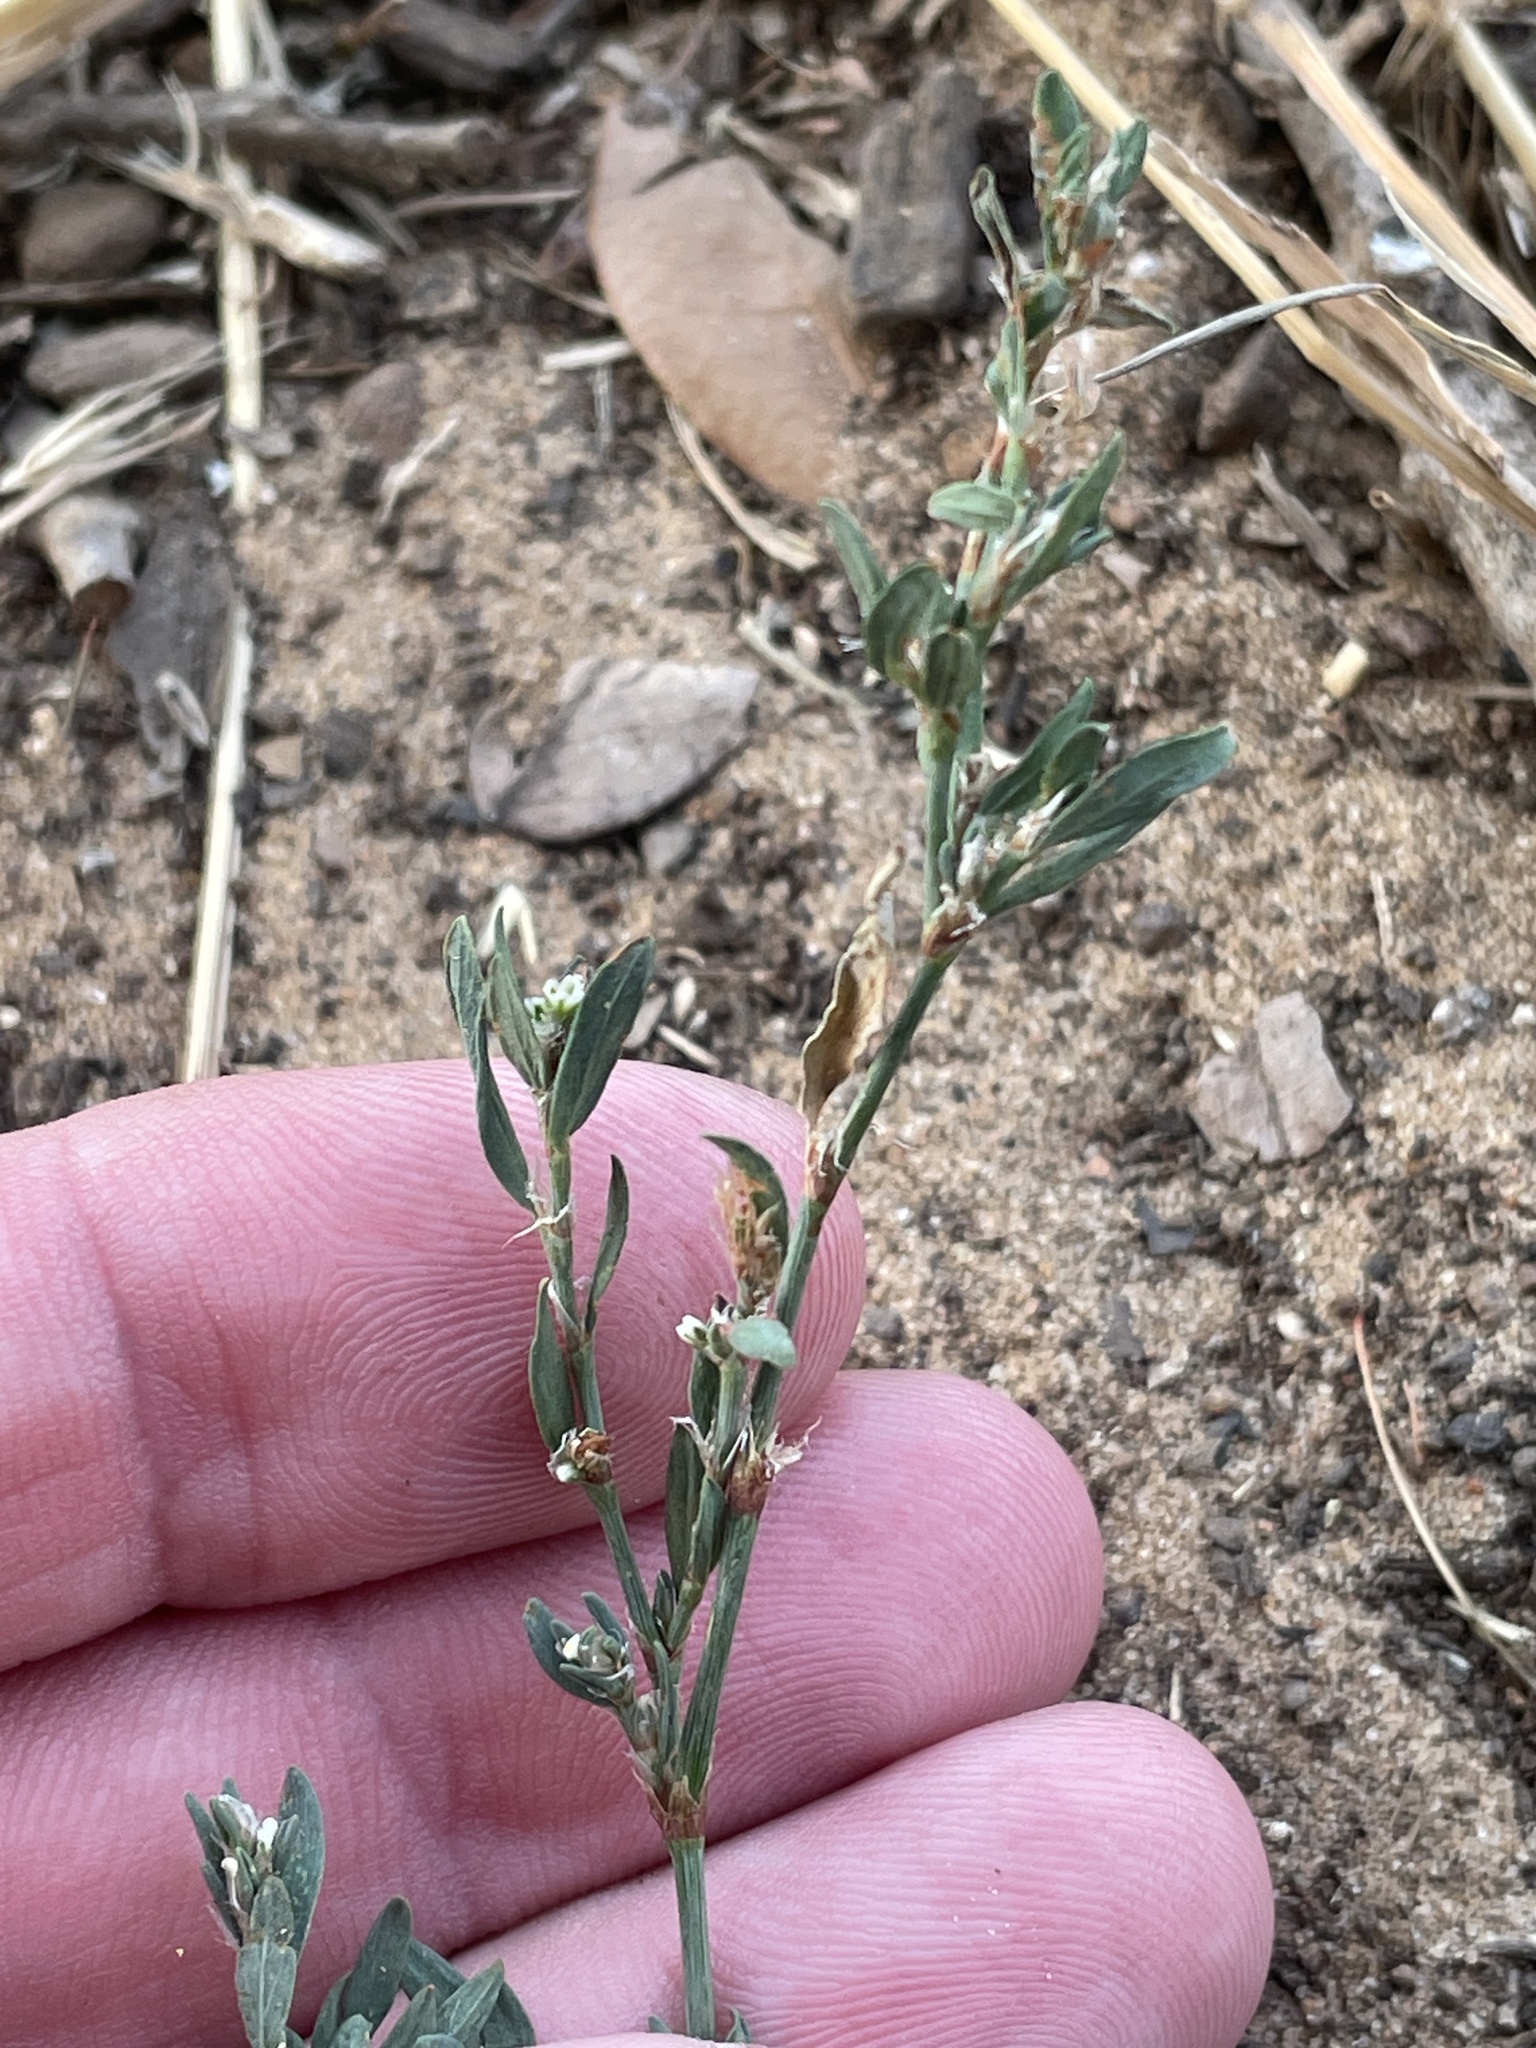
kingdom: Plantae
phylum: Tracheophyta
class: Magnoliopsida
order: Caryophyllales
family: Polygonaceae
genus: Polygonum
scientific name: Polygonum aviculare
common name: Prostrate knotweed
